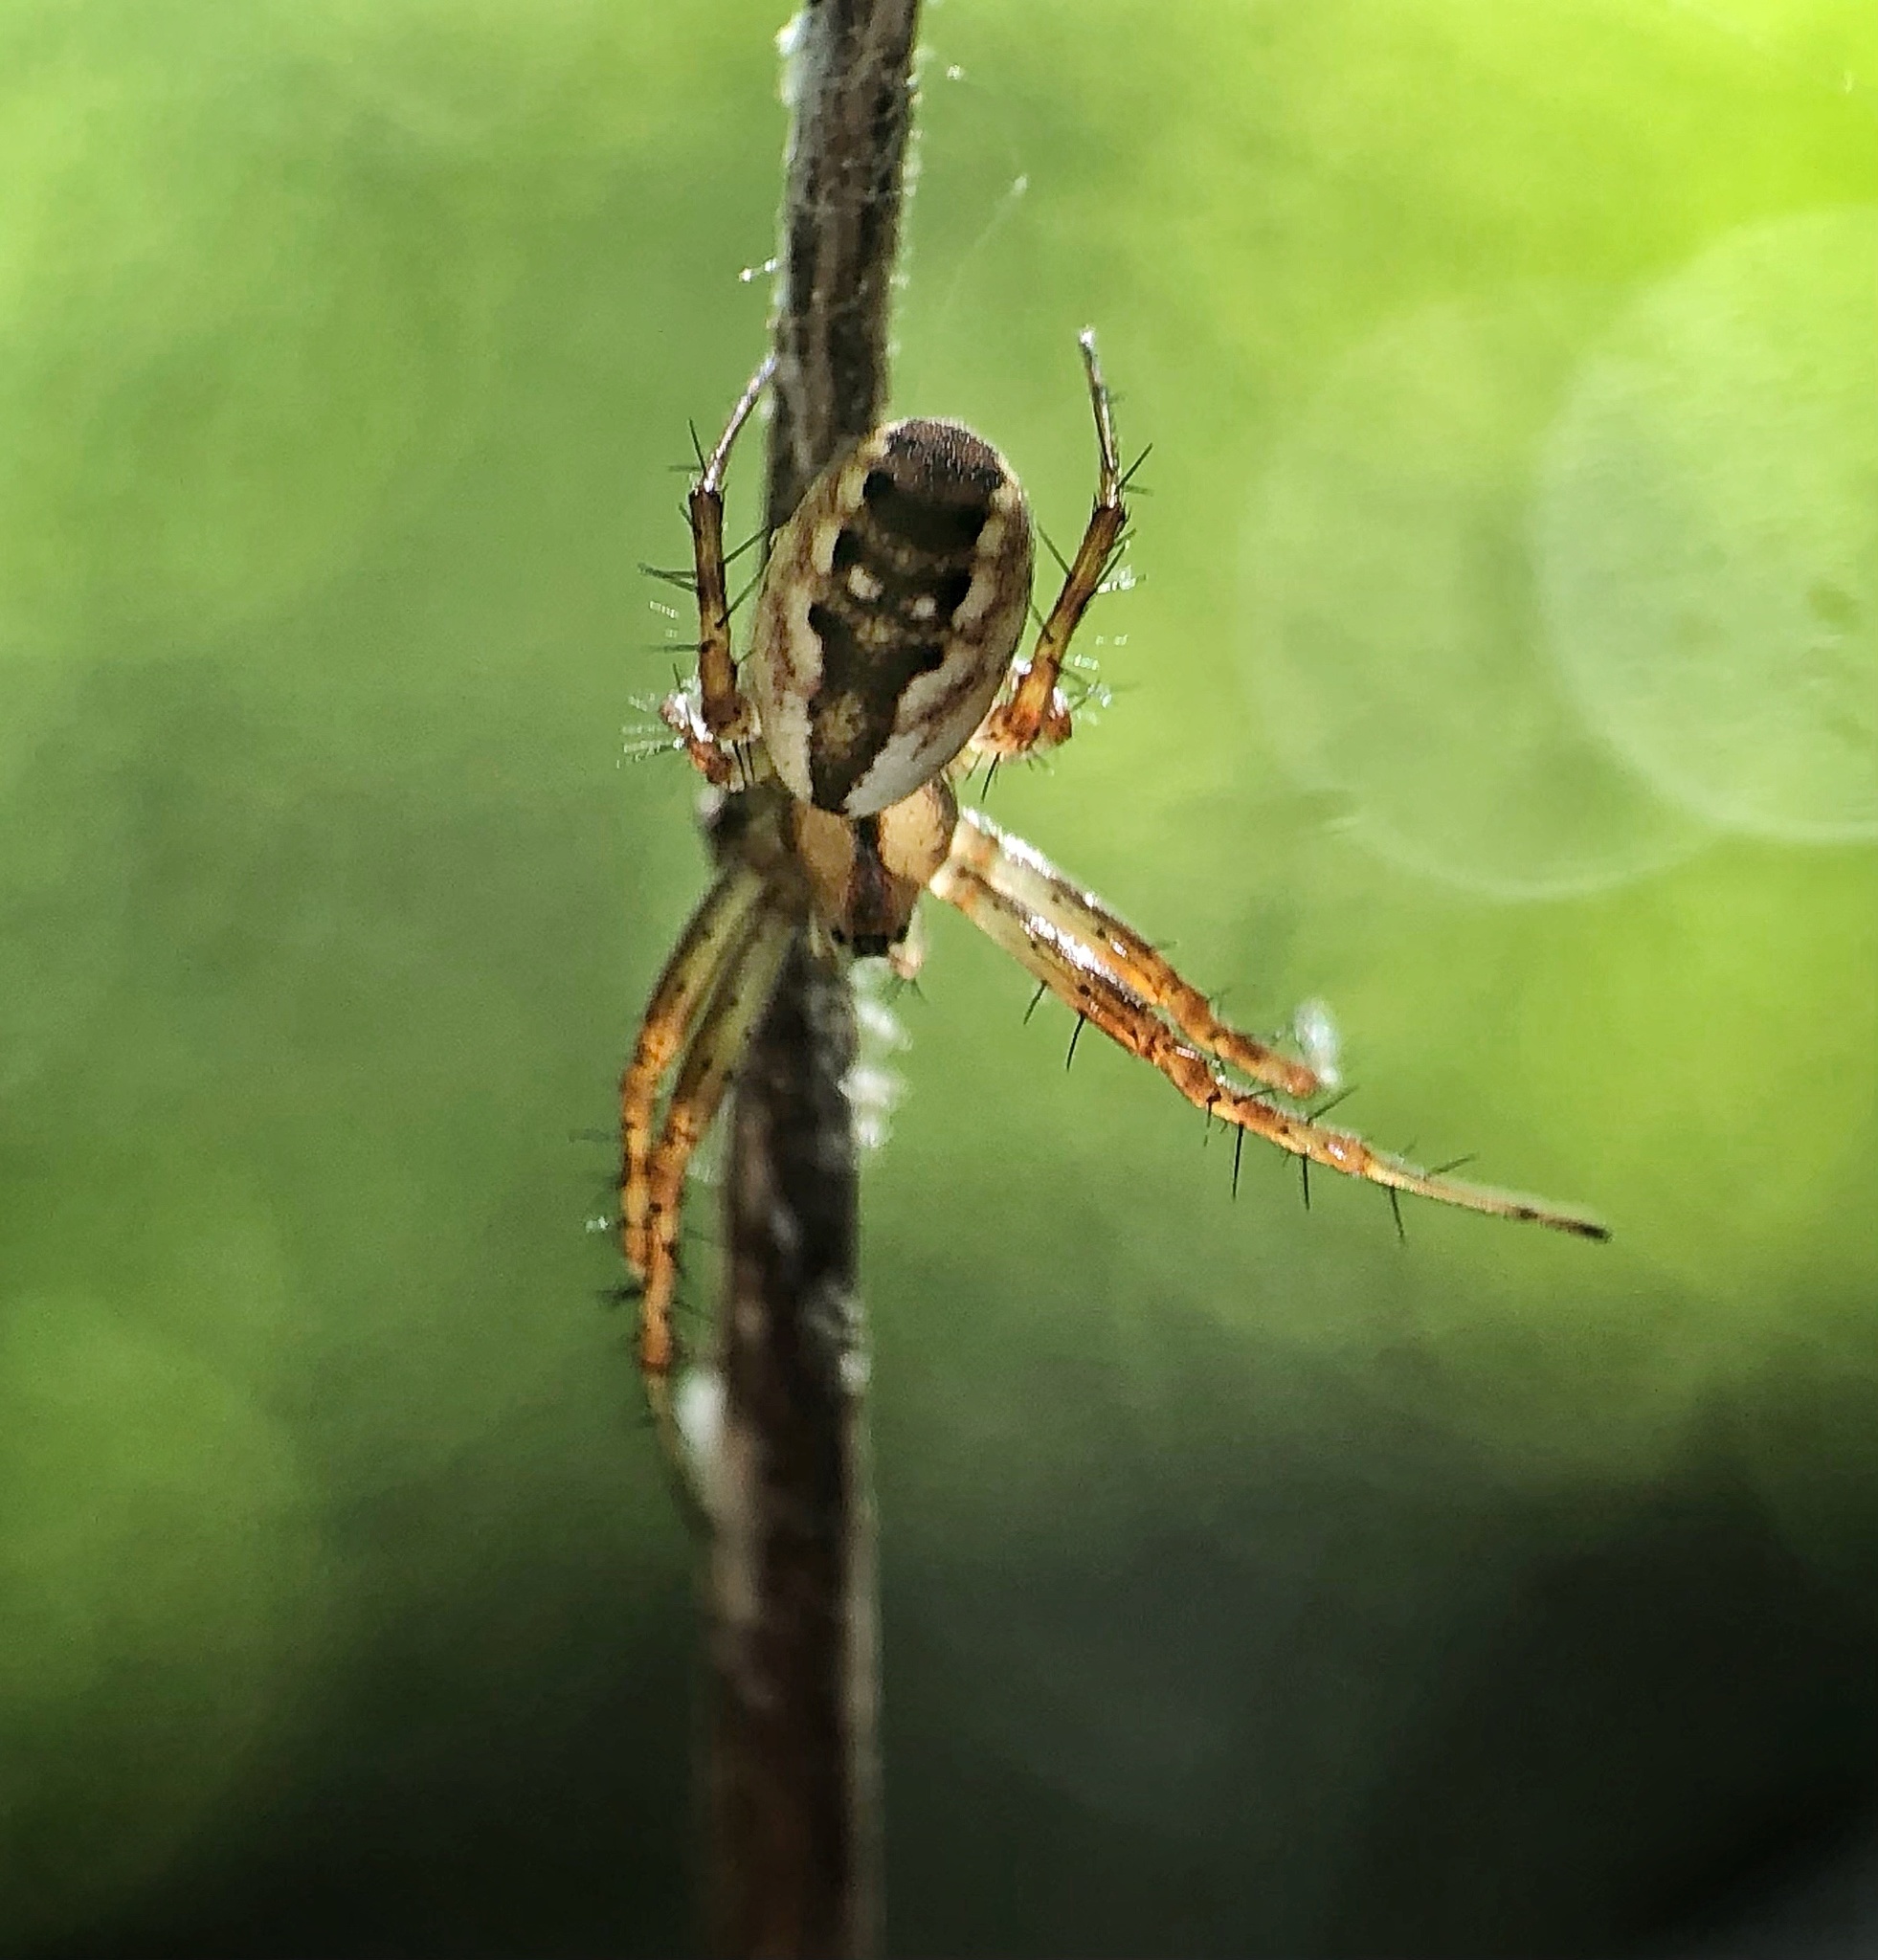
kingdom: Animalia
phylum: Arthropoda
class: Arachnida
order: Araneae
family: Araneidae
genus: Mangora
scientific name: Mangora placida
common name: Tuft-legged orbweaver
